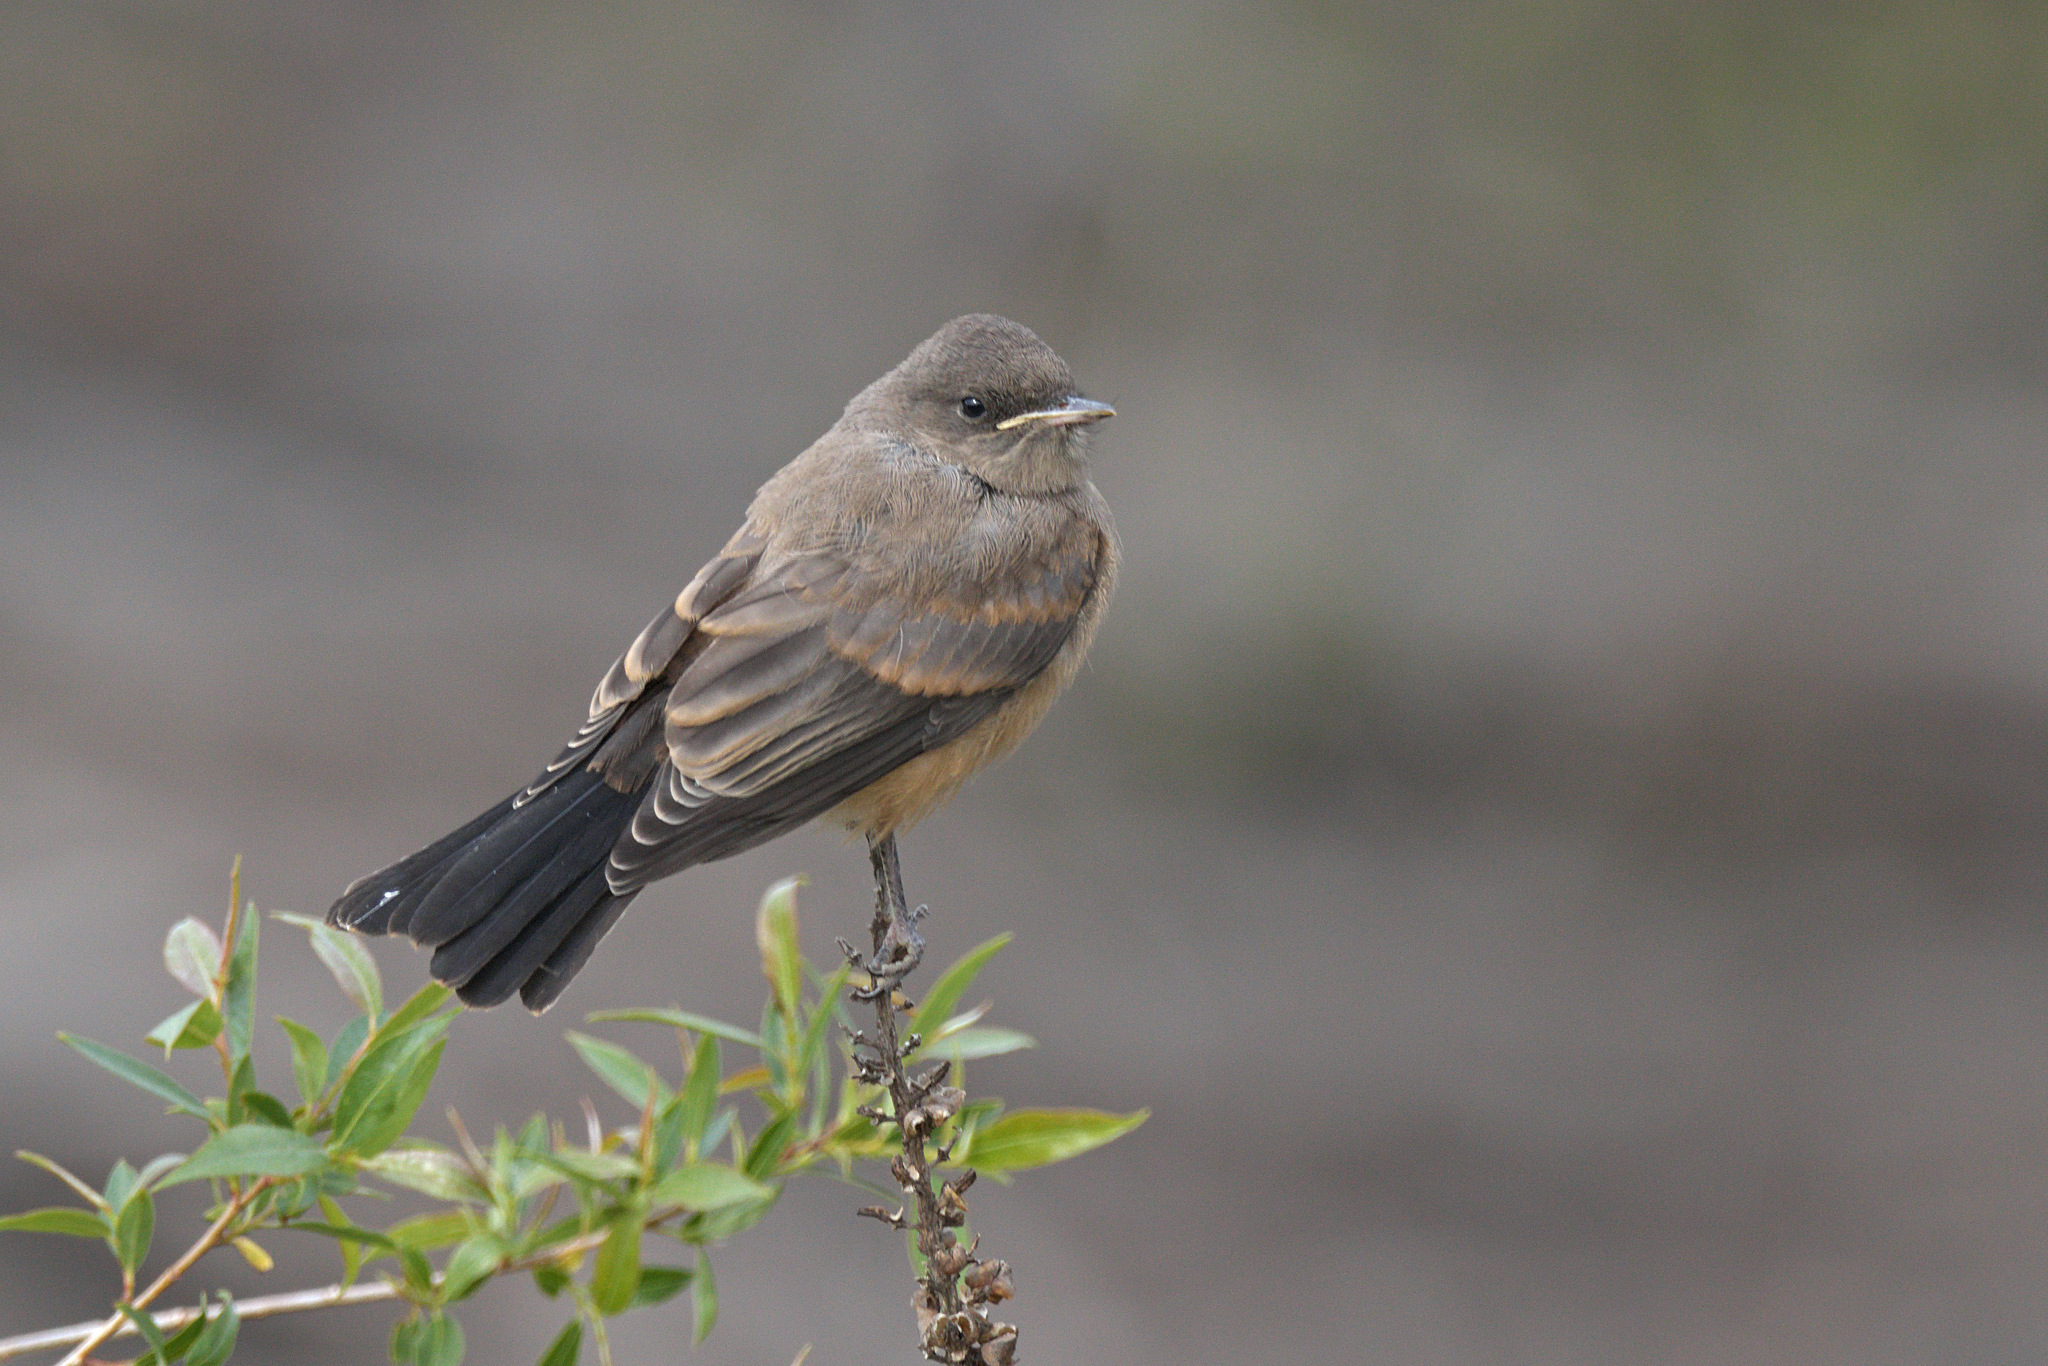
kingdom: Animalia
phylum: Chordata
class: Aves
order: Passeriformes
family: Tyrannidae
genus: Sayornis
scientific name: Sayornis saya
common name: Say's phoebe
